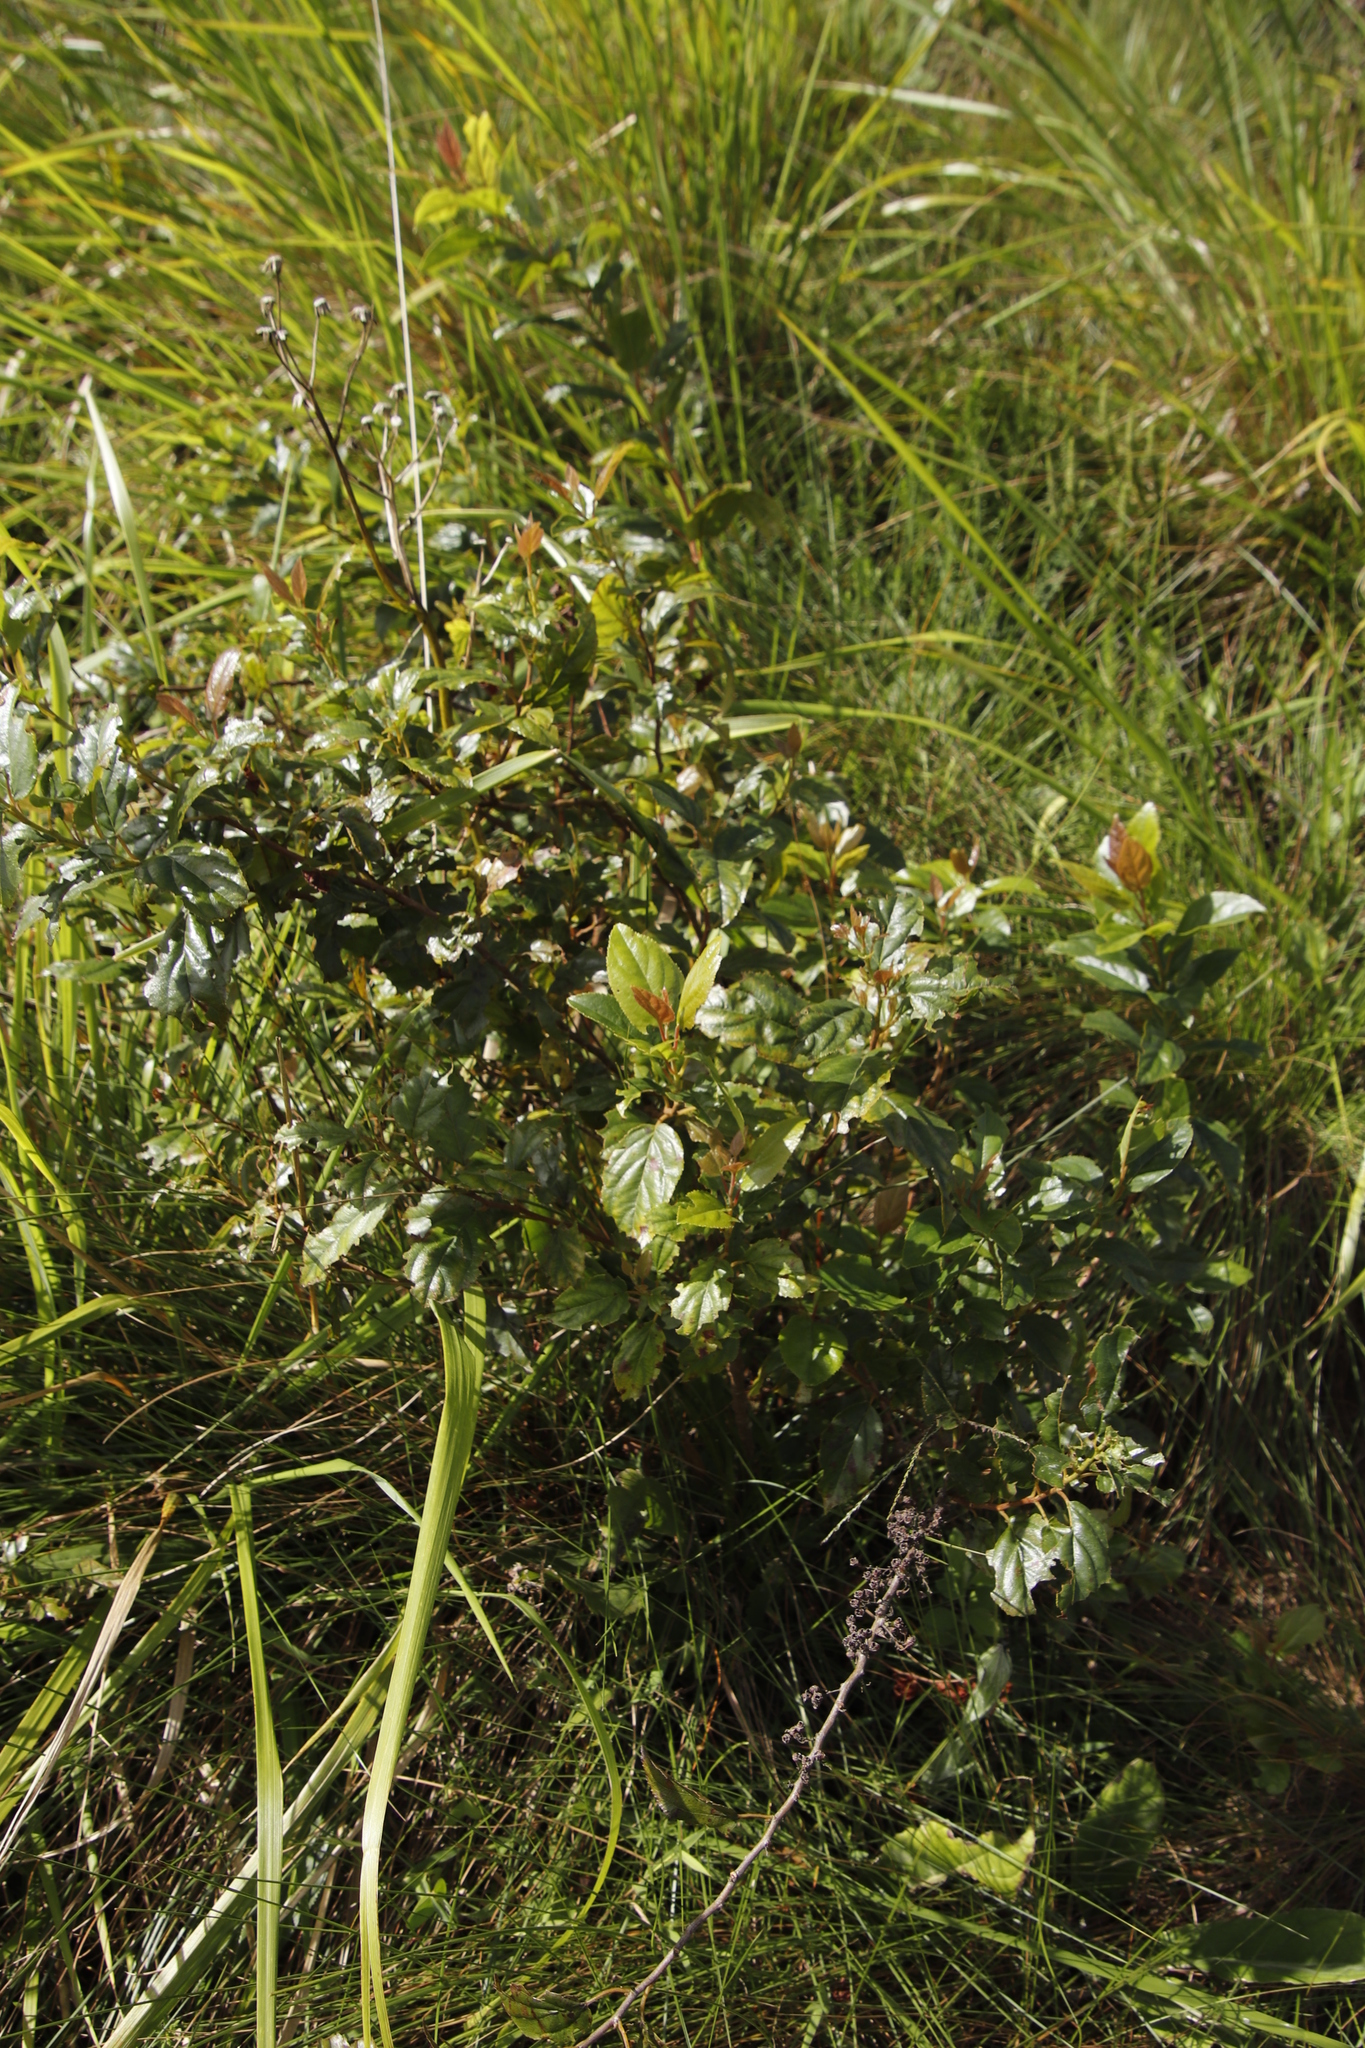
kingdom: Plantae
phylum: Tracheophyta
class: Magnoliopsida
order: Saxifragales
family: Iteaceae
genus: Itea
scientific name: Itea rhamnoides
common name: False dogwood
